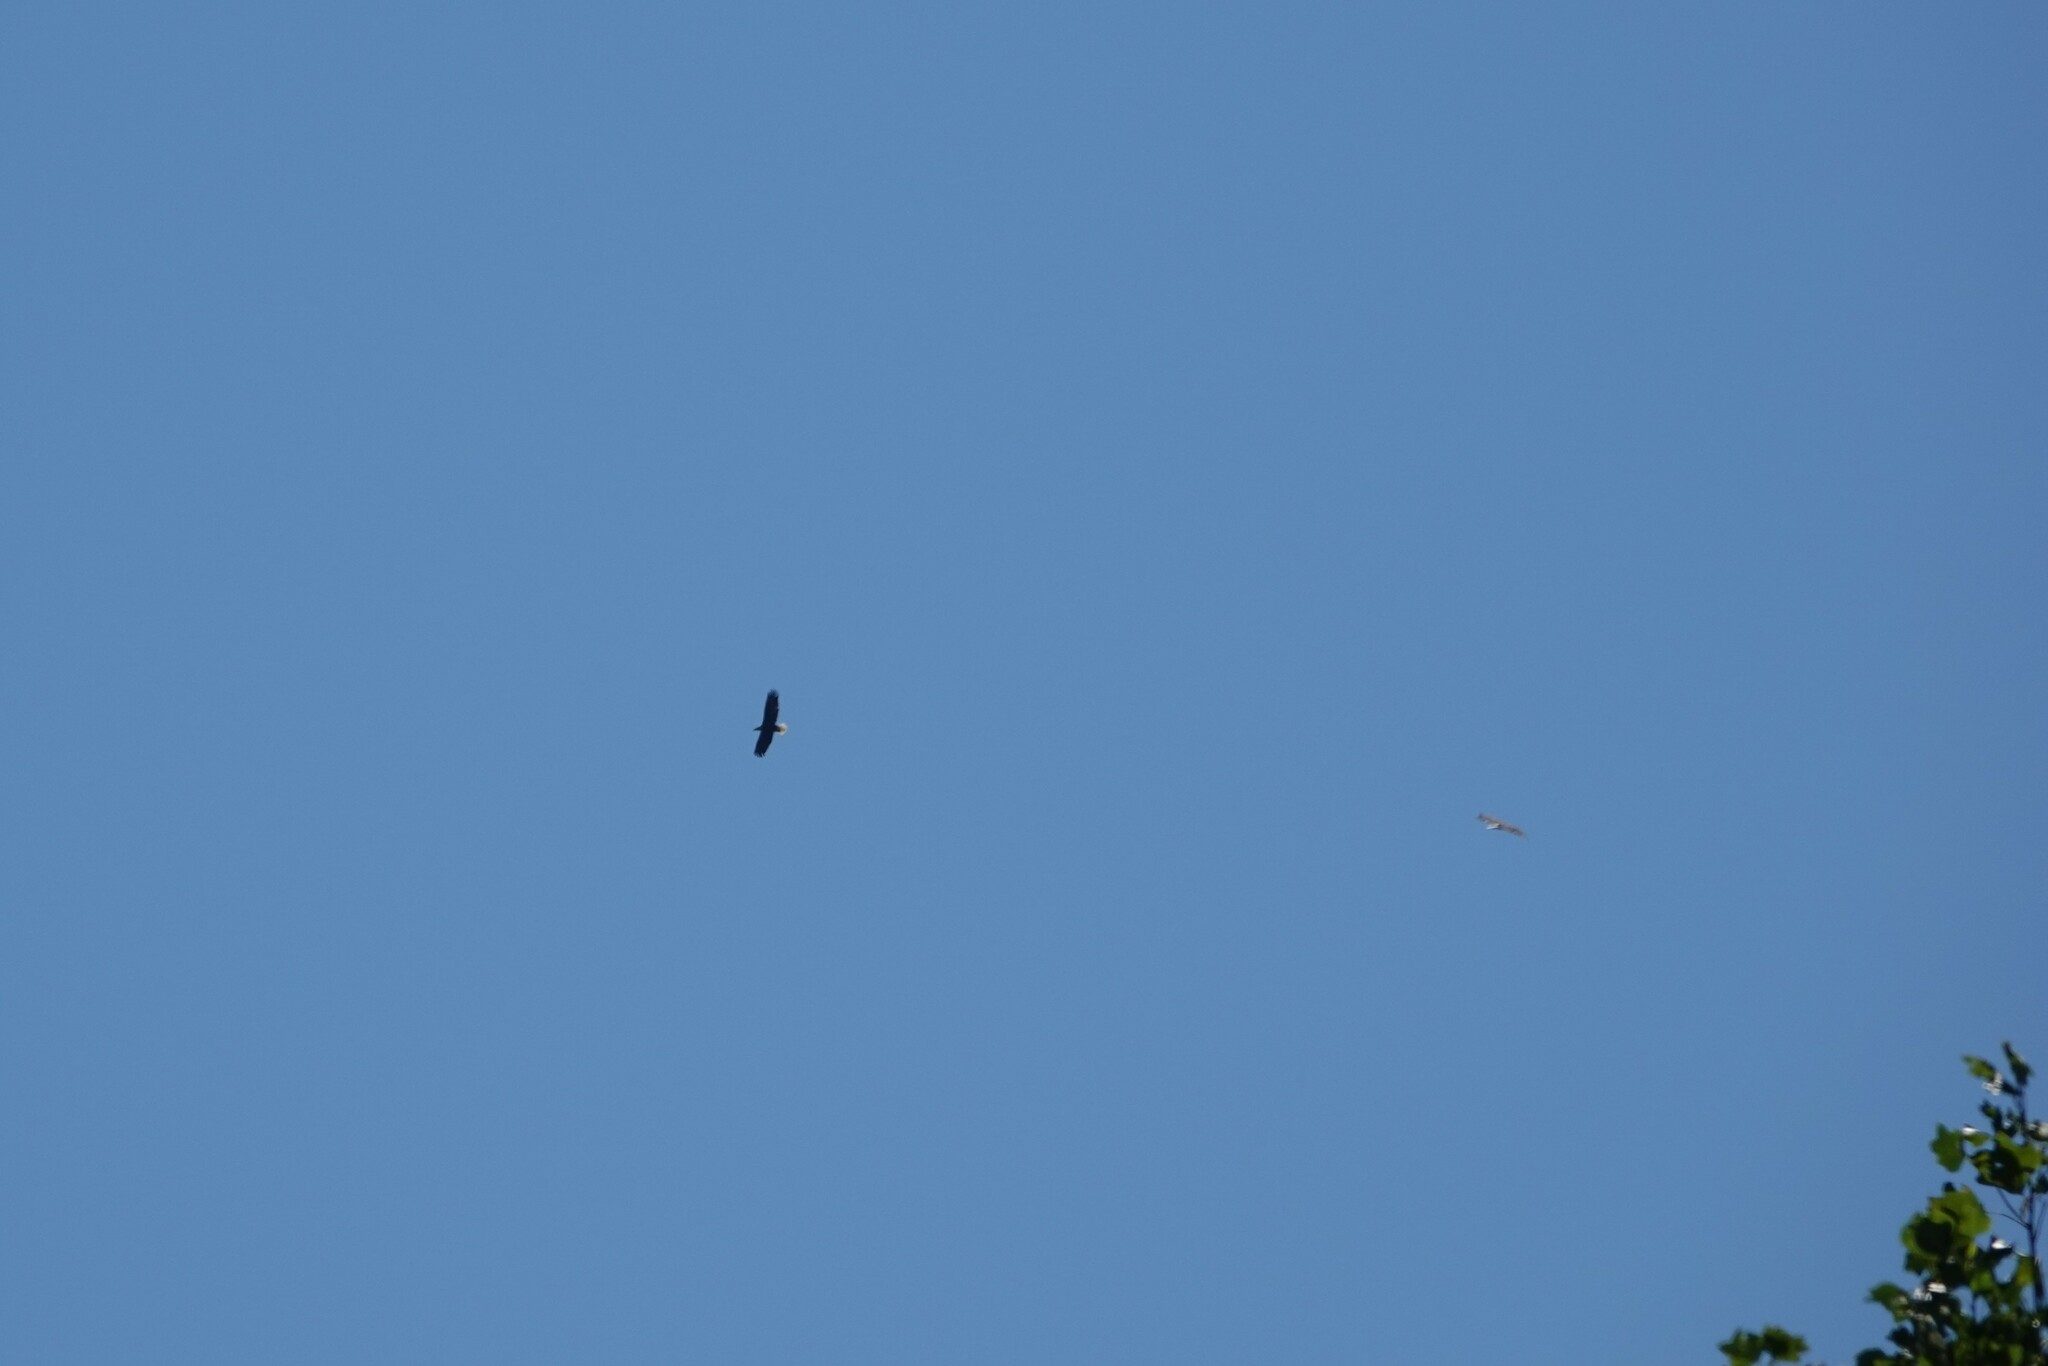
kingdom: Animalia
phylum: Chordata
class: Aves
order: Accipitriformes
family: Accipitridae
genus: Haliaeetus
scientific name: Haliaeetus leucocephalus
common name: Bald eagle
